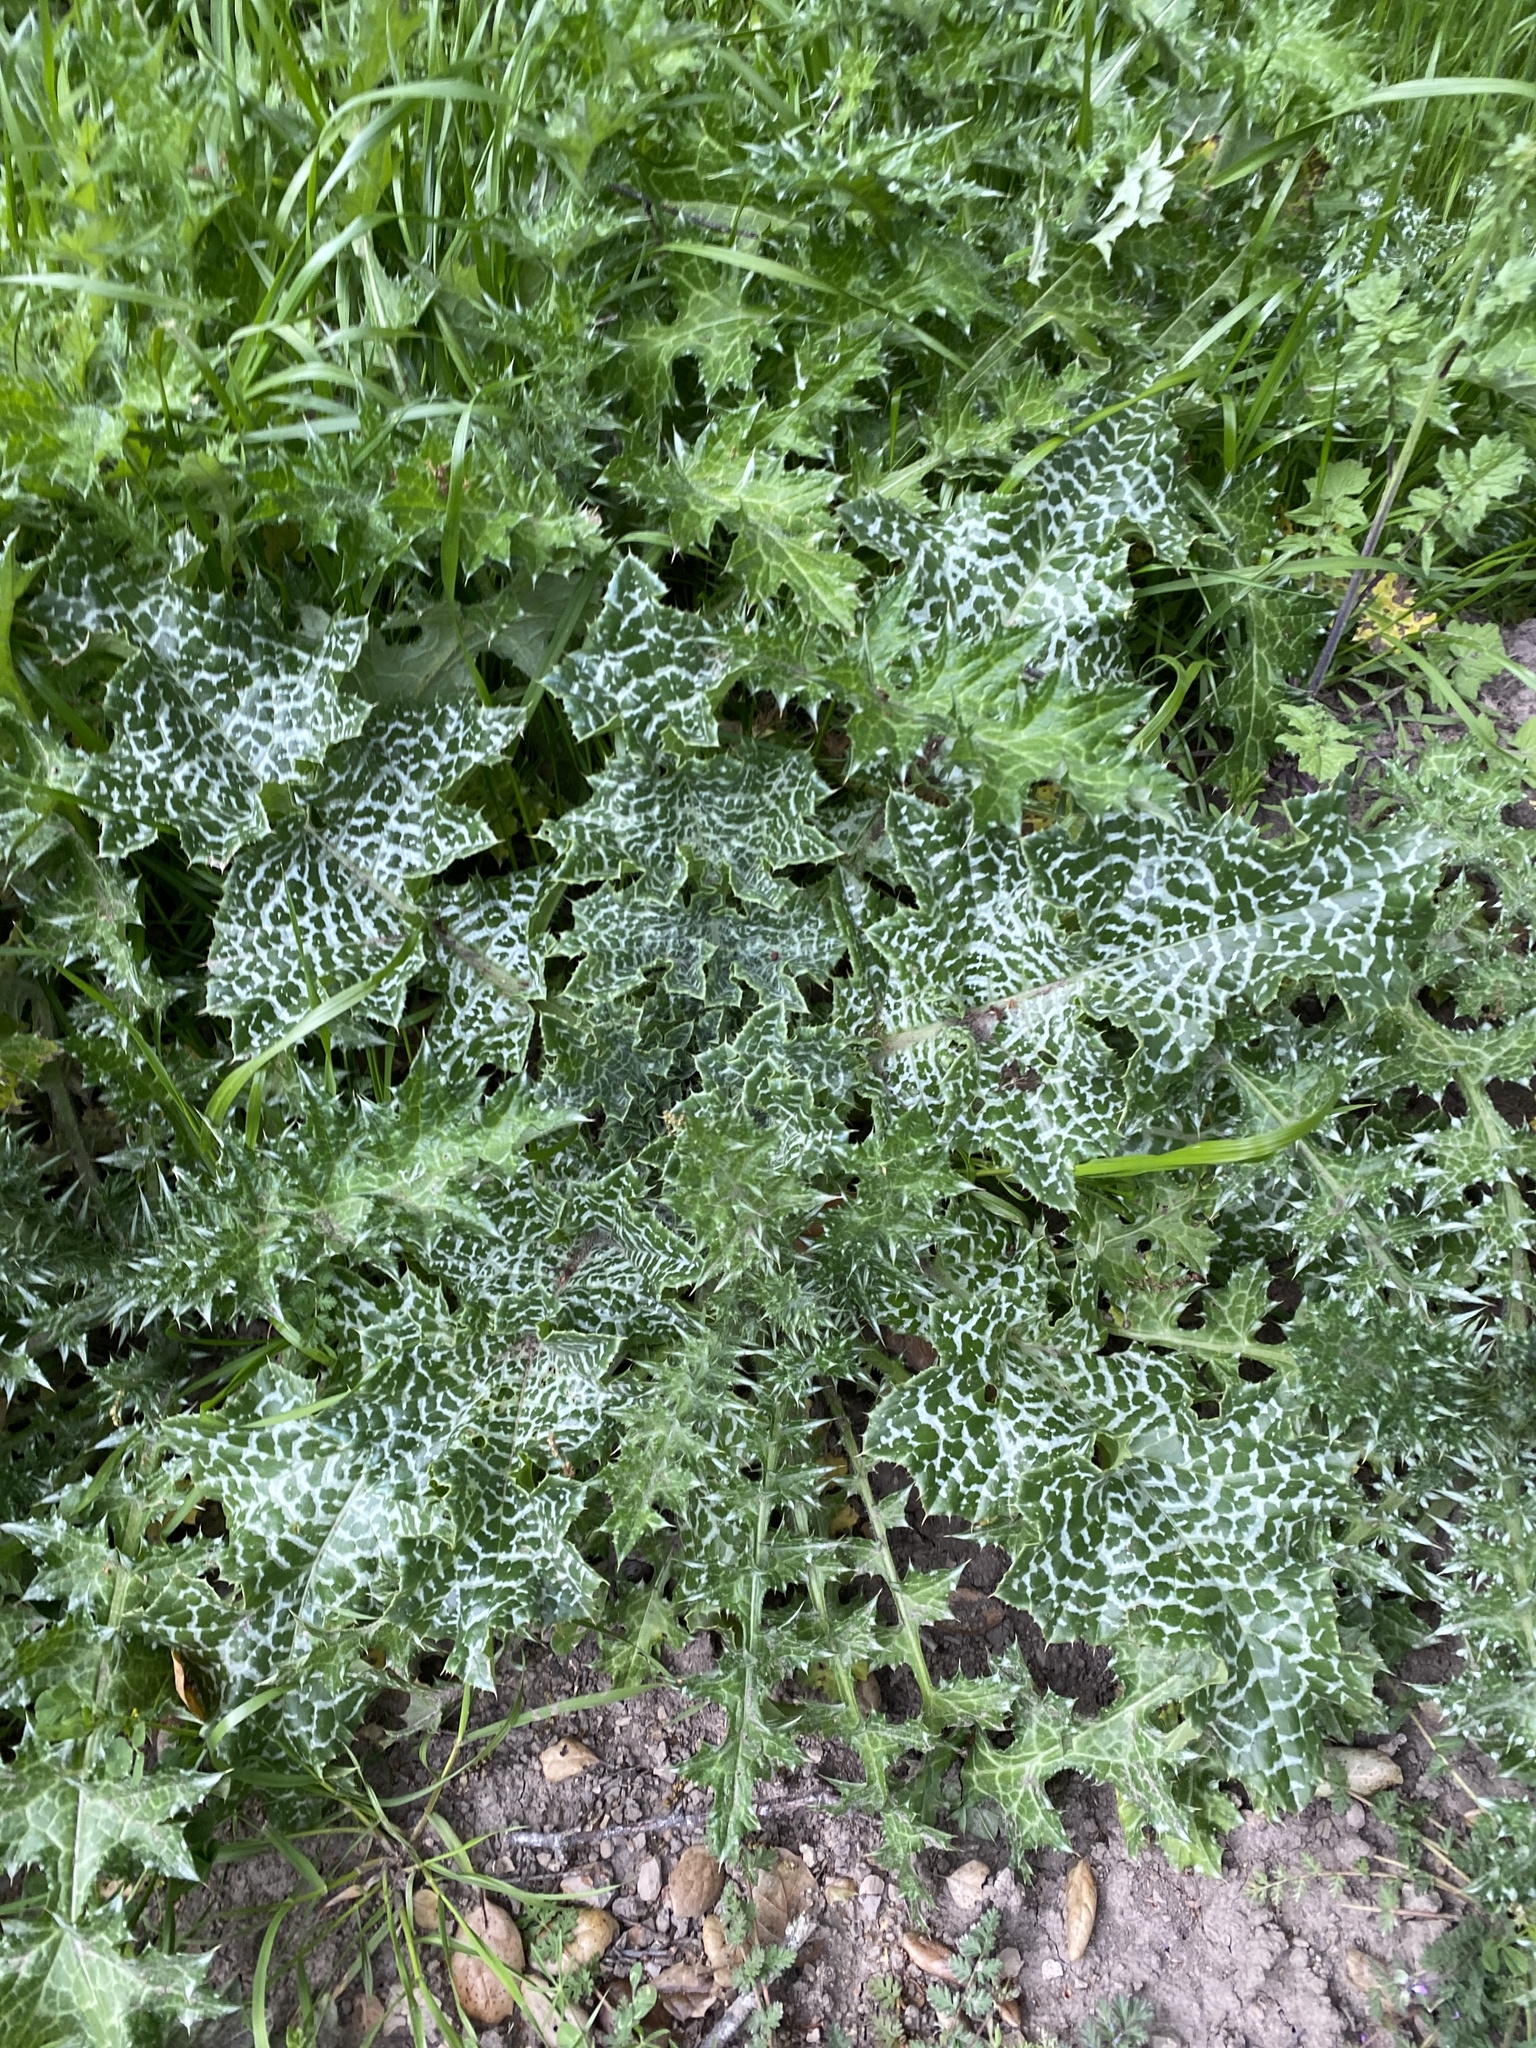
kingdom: Plantae
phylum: Tracheophyta
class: Magnoliopsida
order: Asterales
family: Asteraceae
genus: Silybum
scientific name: Silybum marianum
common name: Milk thistle
